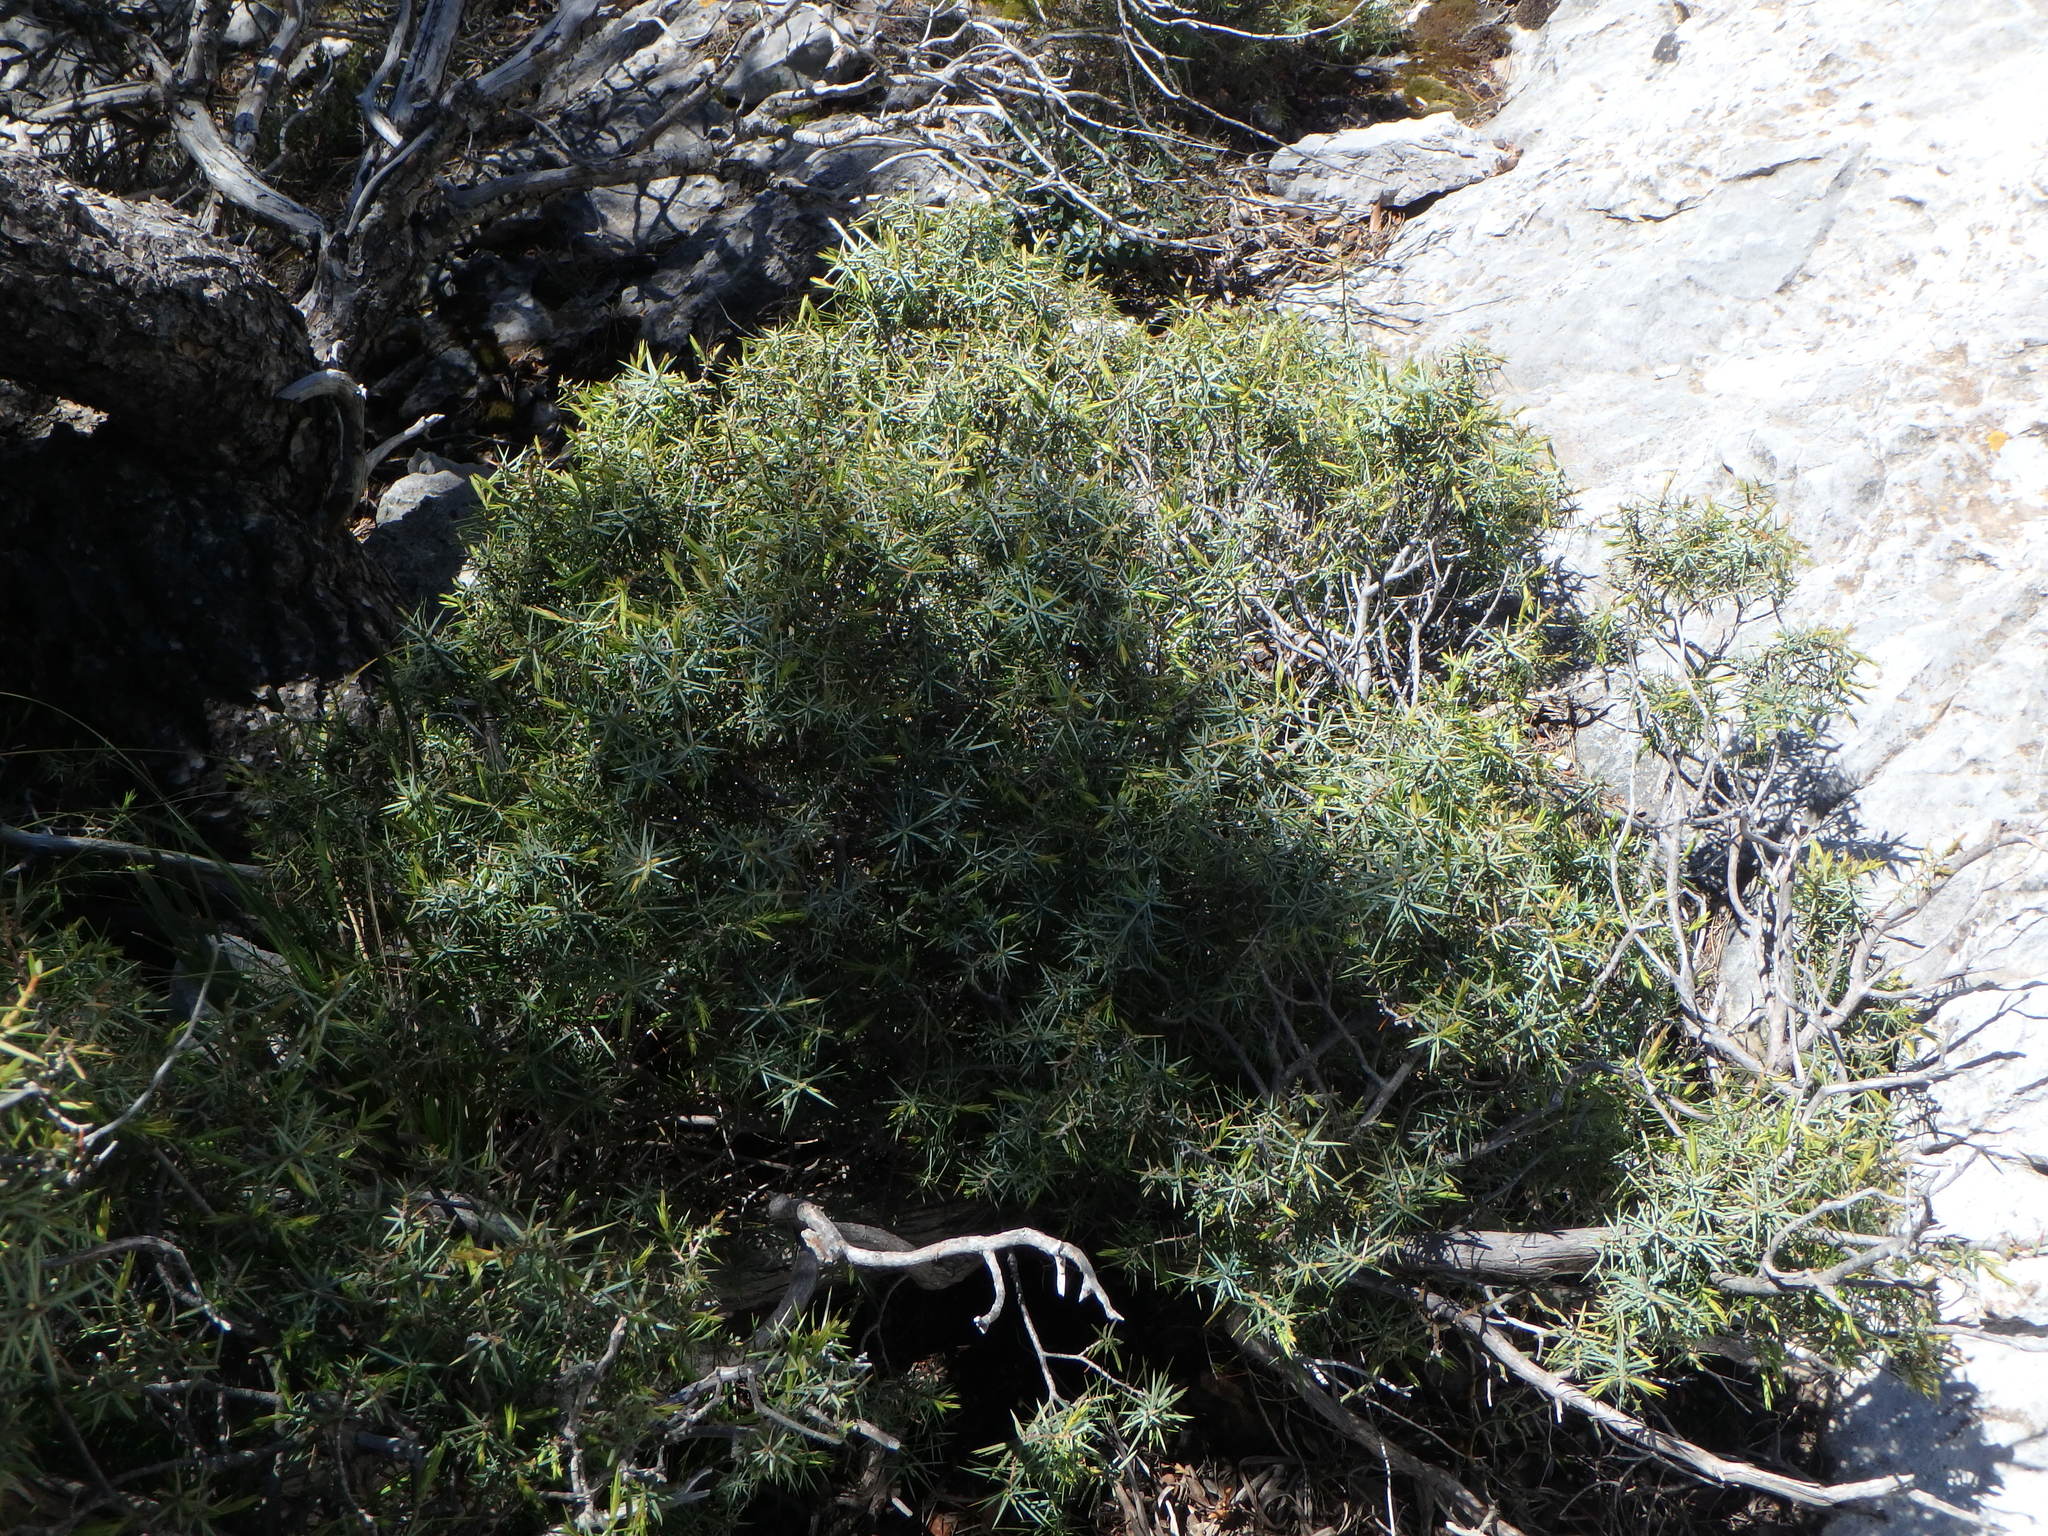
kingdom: Plantae
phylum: Tracheophyta
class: Pinopsida
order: Pinales
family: Cupressaceae
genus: Juniperus
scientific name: Juniperus oxycedrus
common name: Prickly juniper
